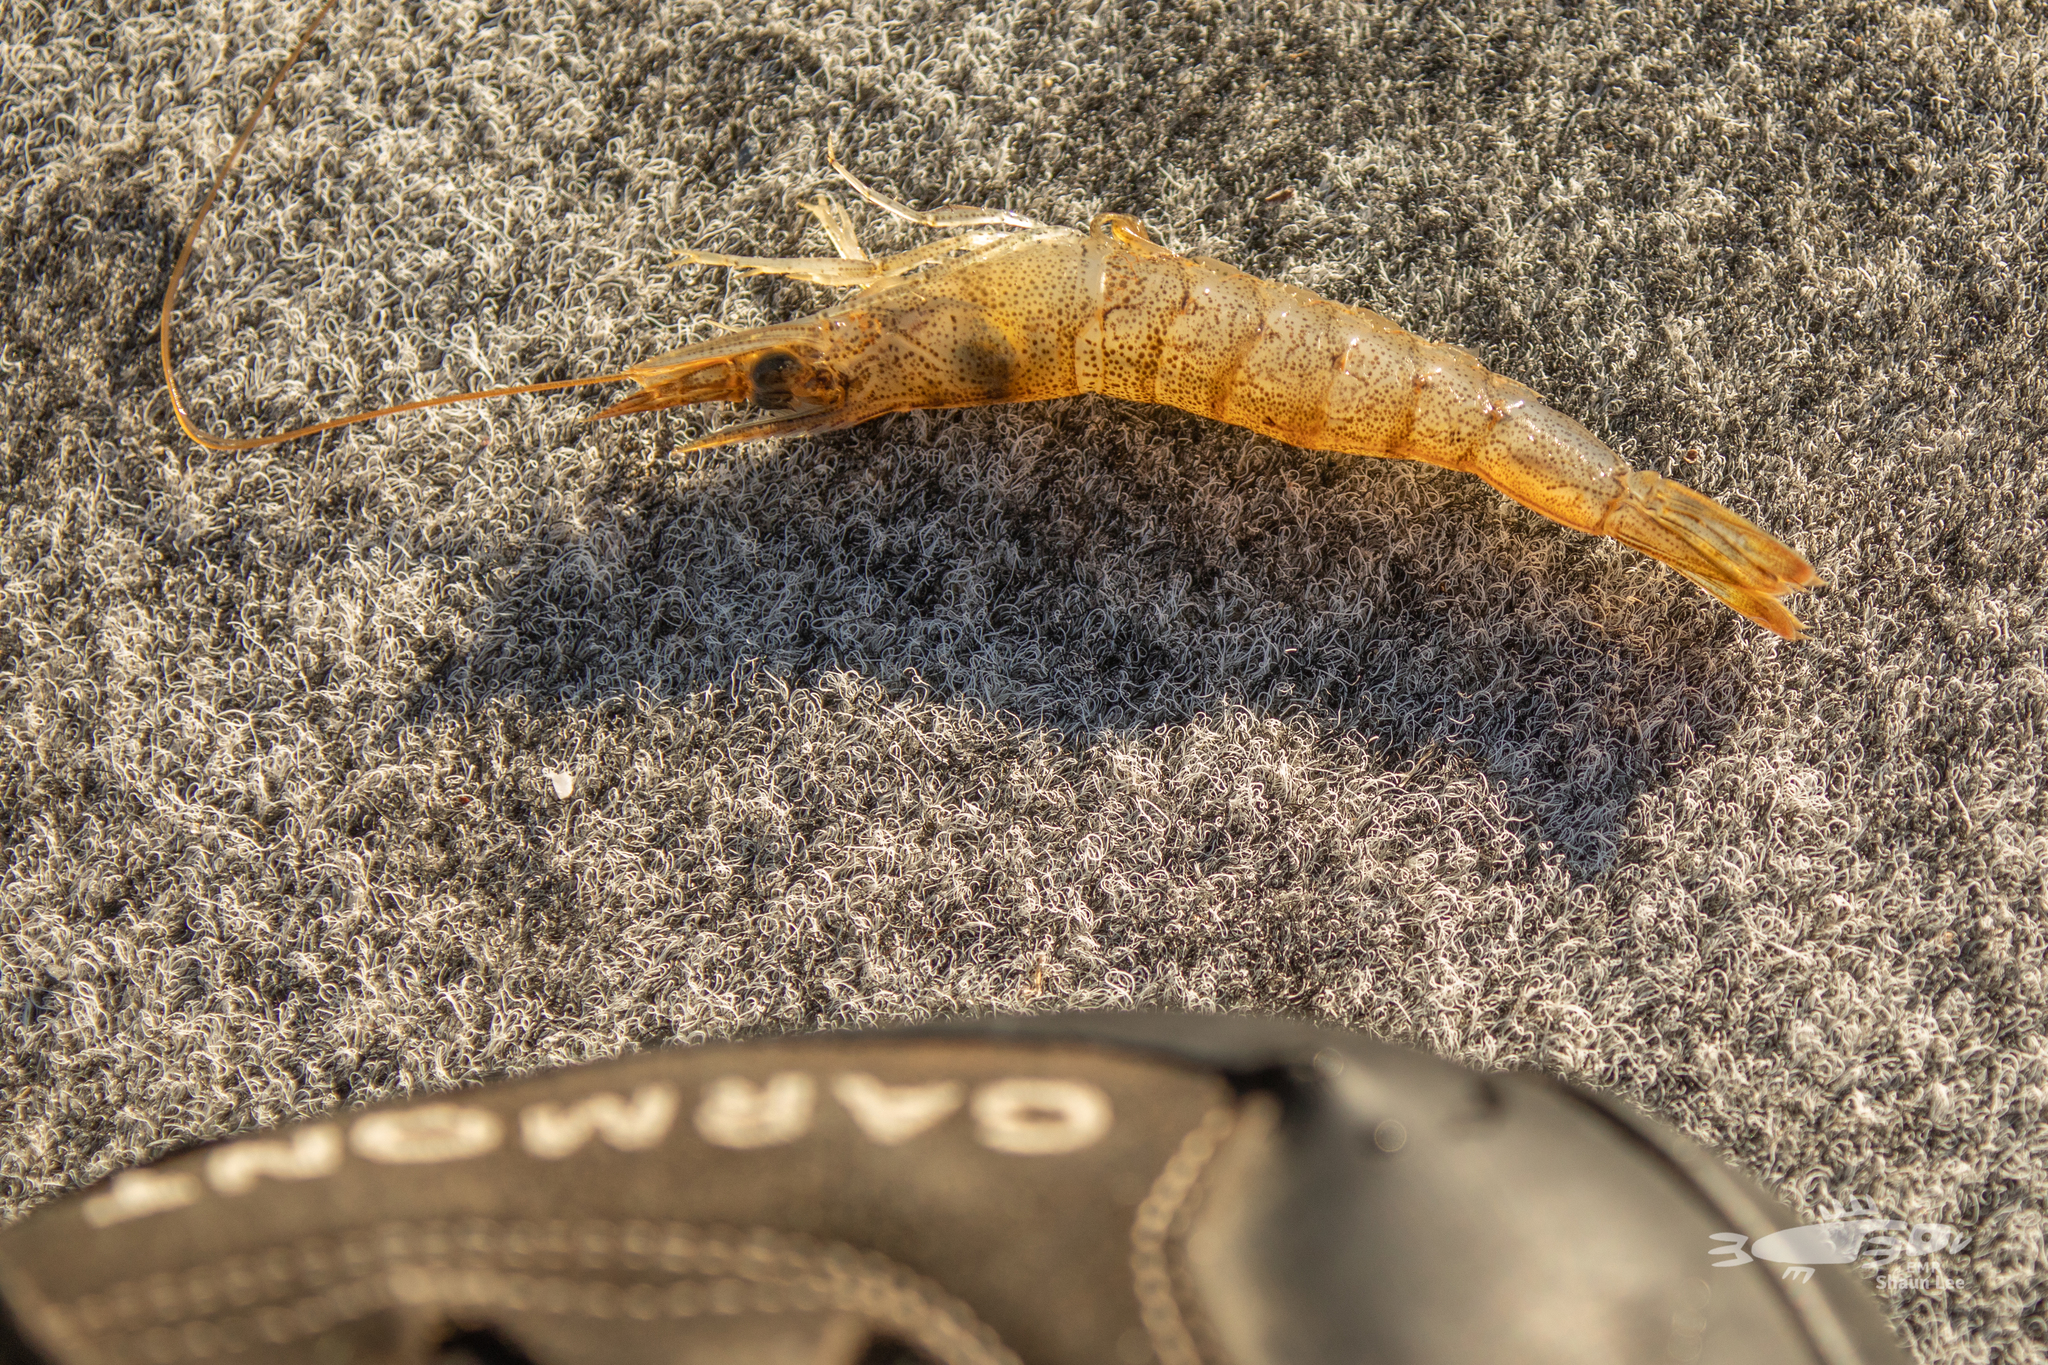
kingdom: Animalia
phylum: Arthropoda
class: Malacostraca
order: Decapoda
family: Penaeidae
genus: Metapenaeus
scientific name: Metapenaeus bennettae
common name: Bay prawn
